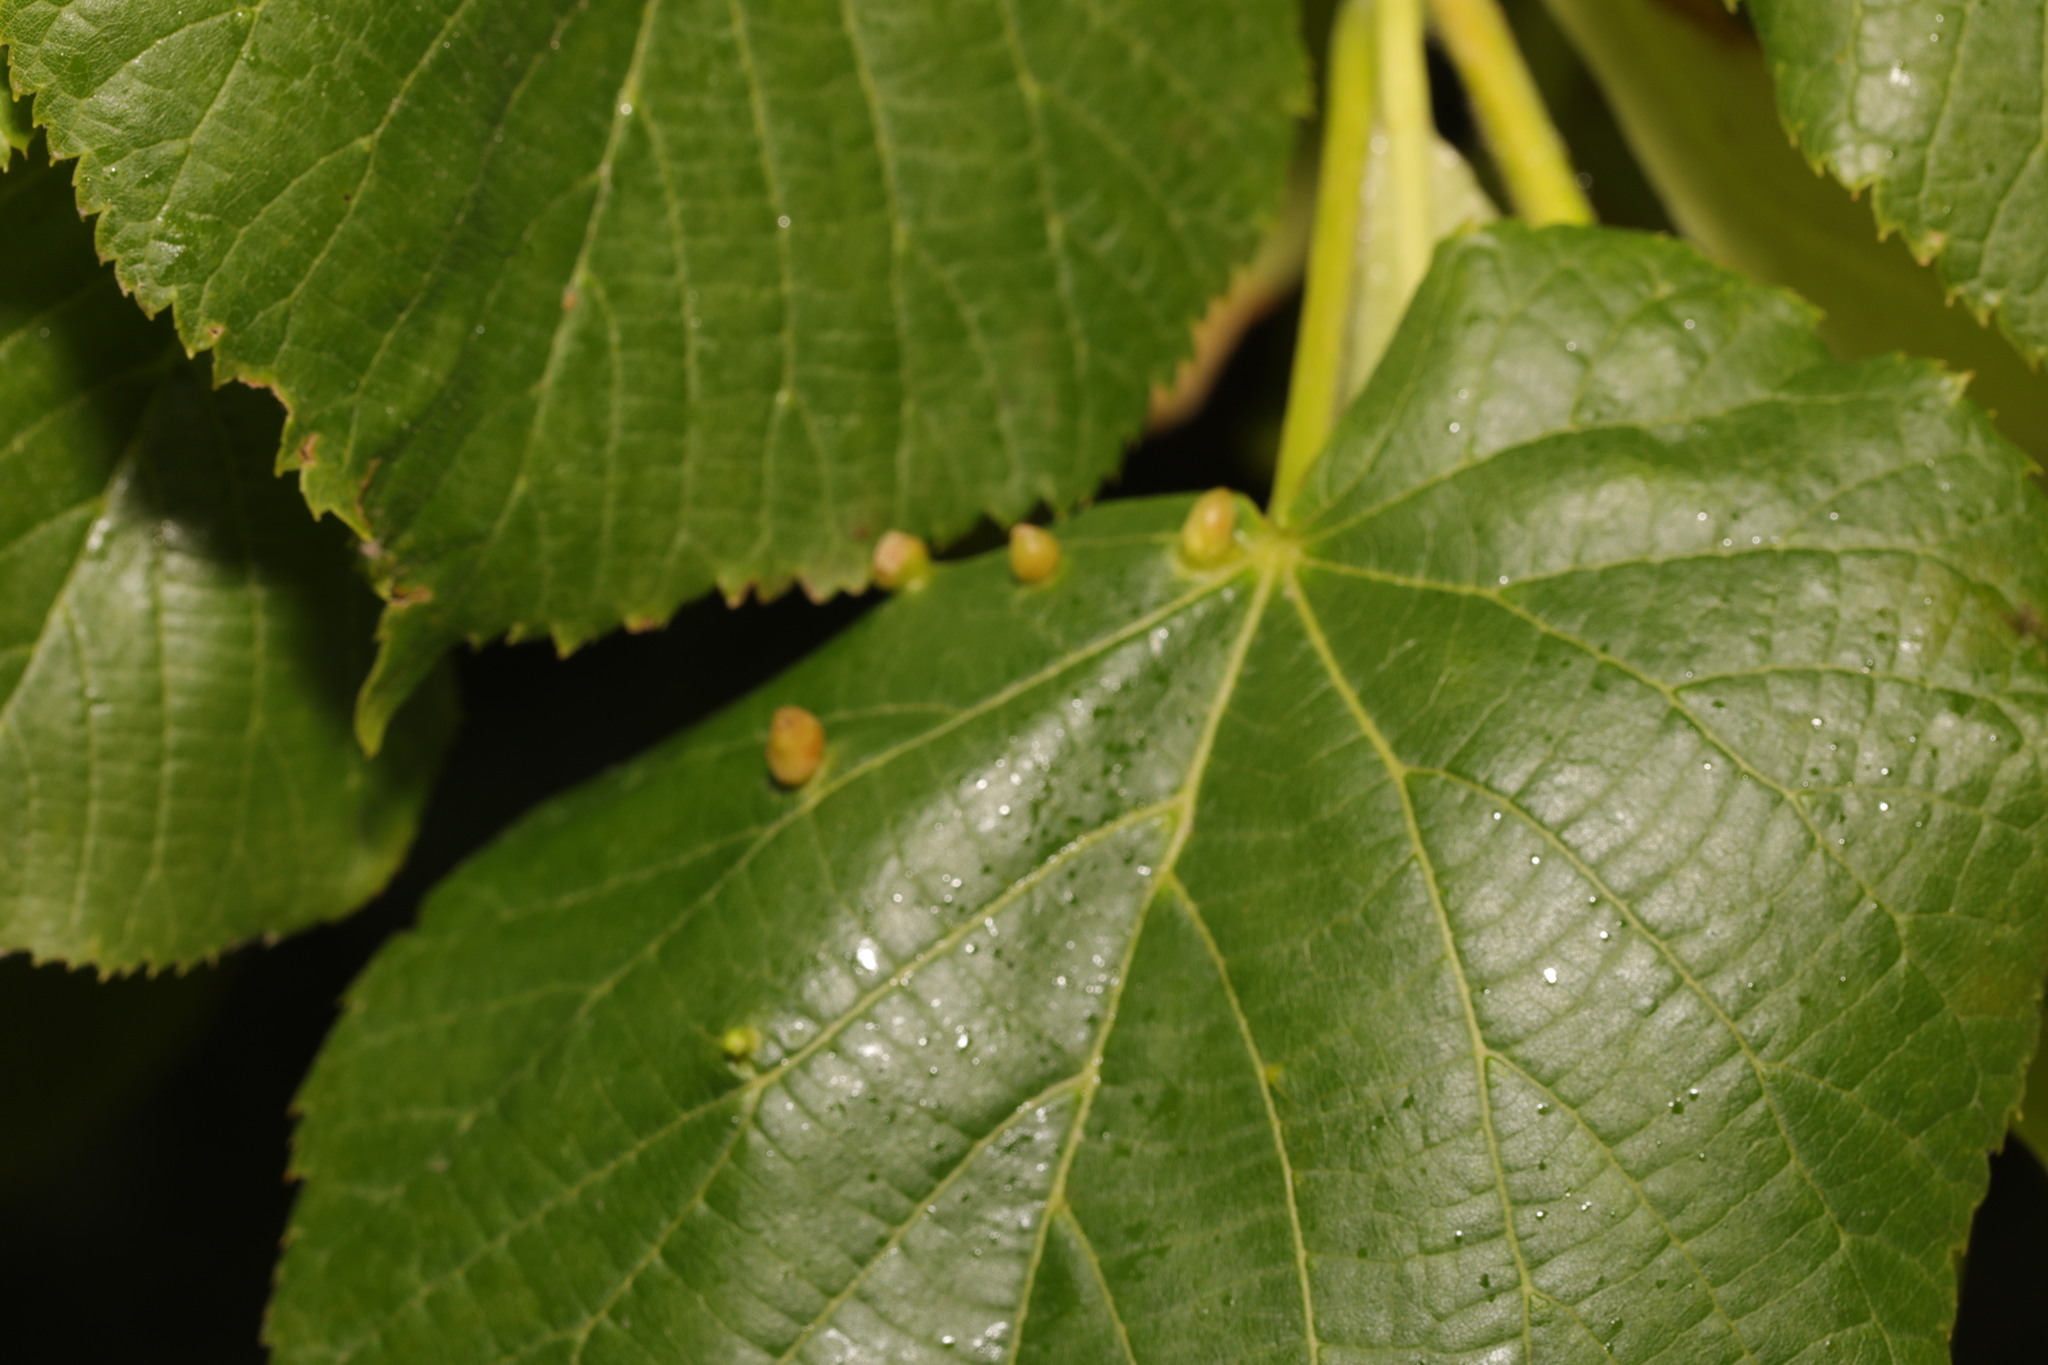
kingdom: Animalia
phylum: Arthropoda
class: Arachnida
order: Trombidiformes
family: Eriophyidae
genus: Eriophyes
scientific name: Eriophyes tiliae
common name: Red nail gall mite
